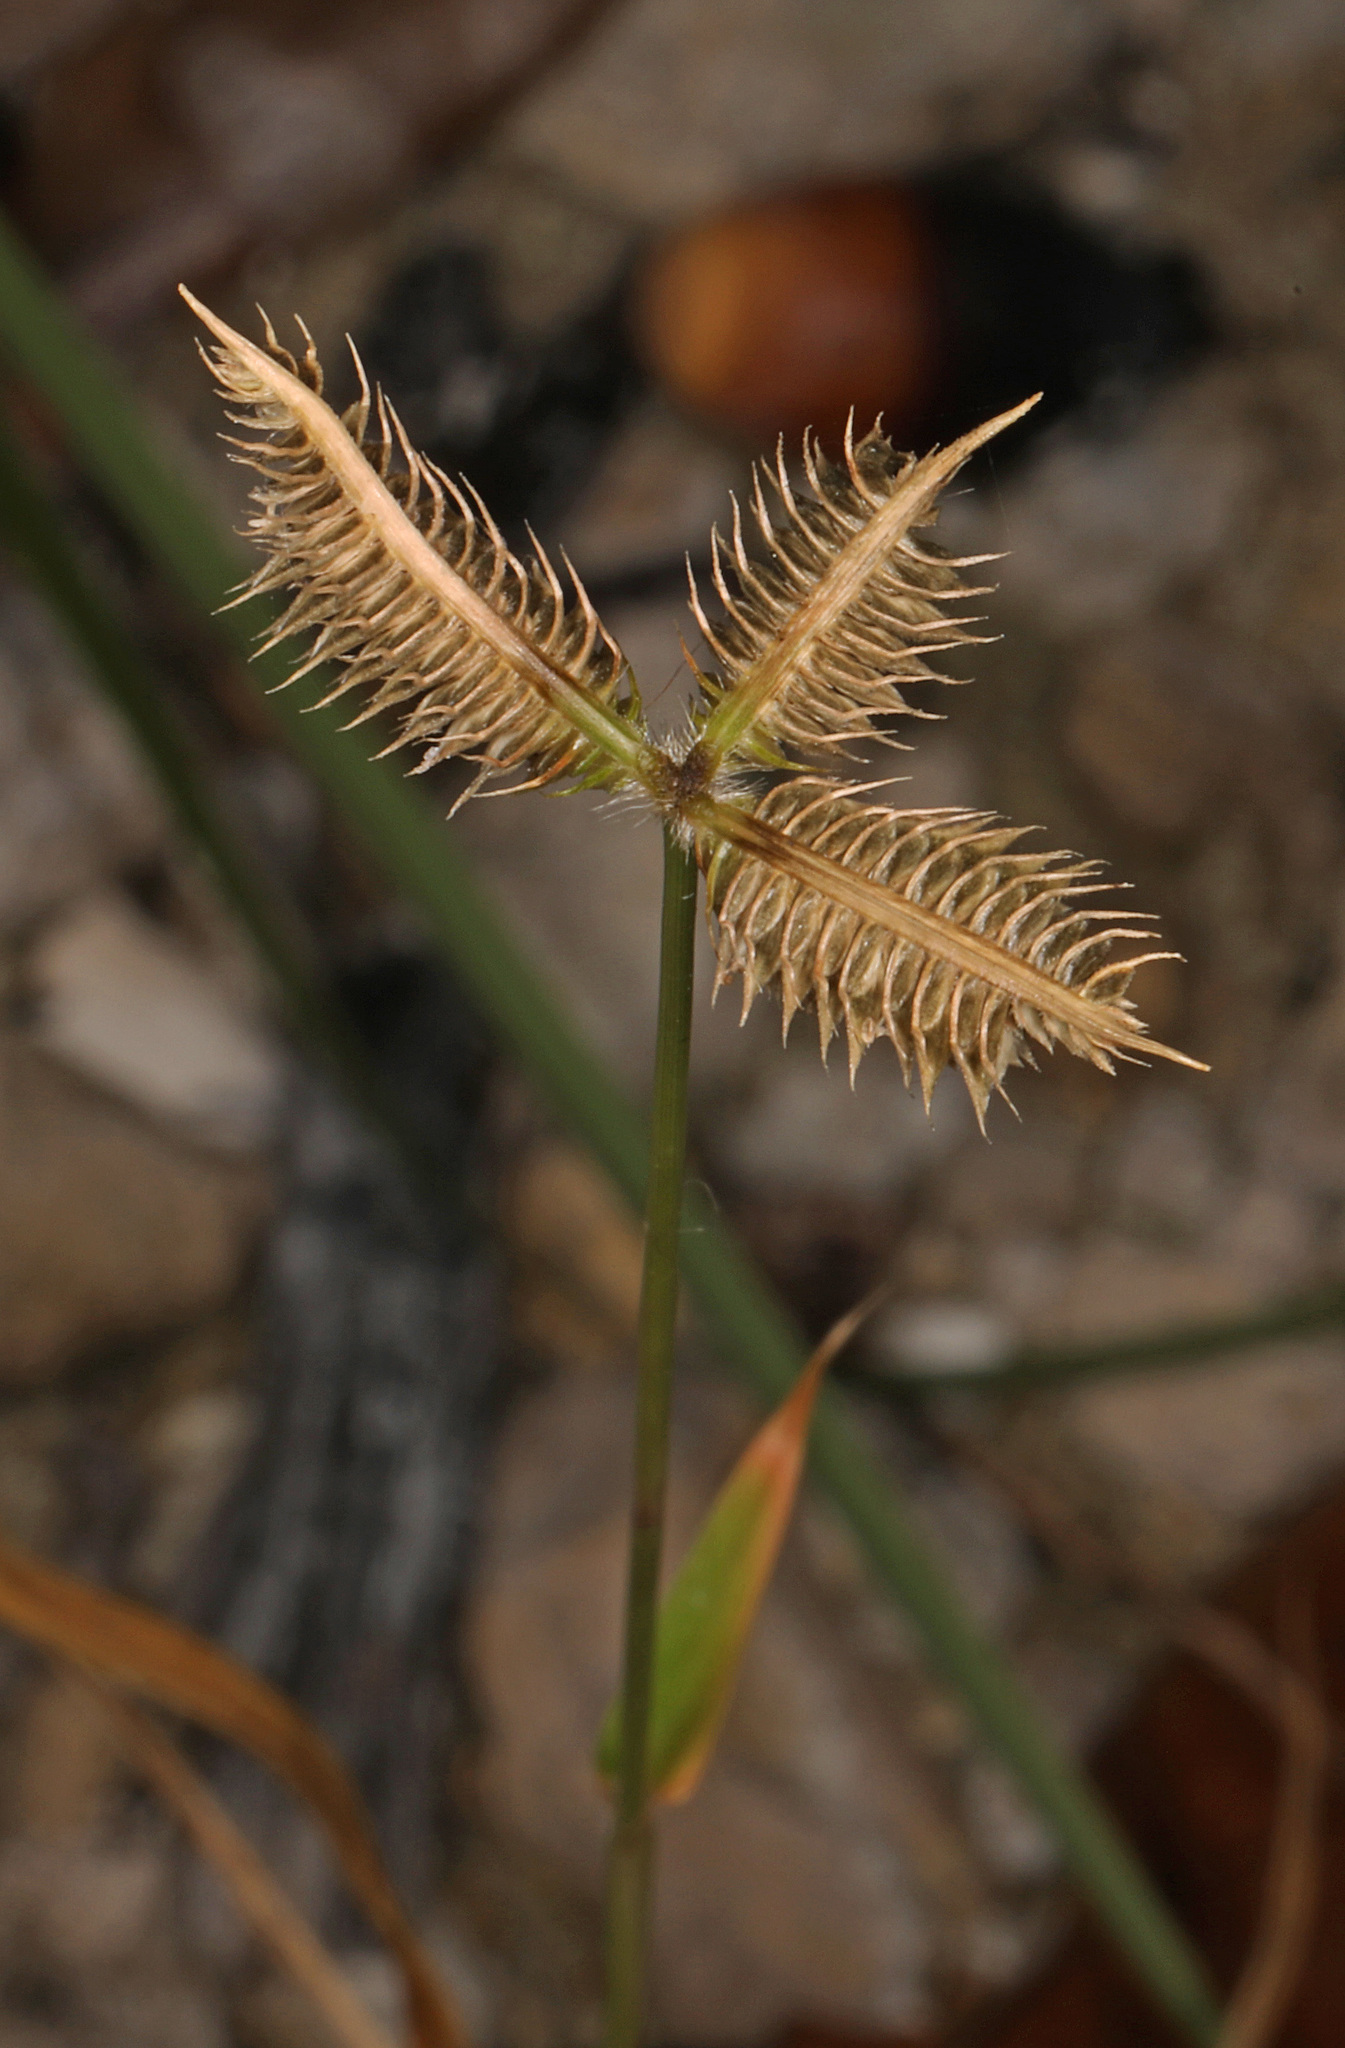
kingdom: Plantae
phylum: Tracheophyta
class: Liliopsida
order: Poales
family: Poaceae
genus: Dactyloctenium
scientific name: Dactyloctenium aegyptium
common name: Egyptian grass
